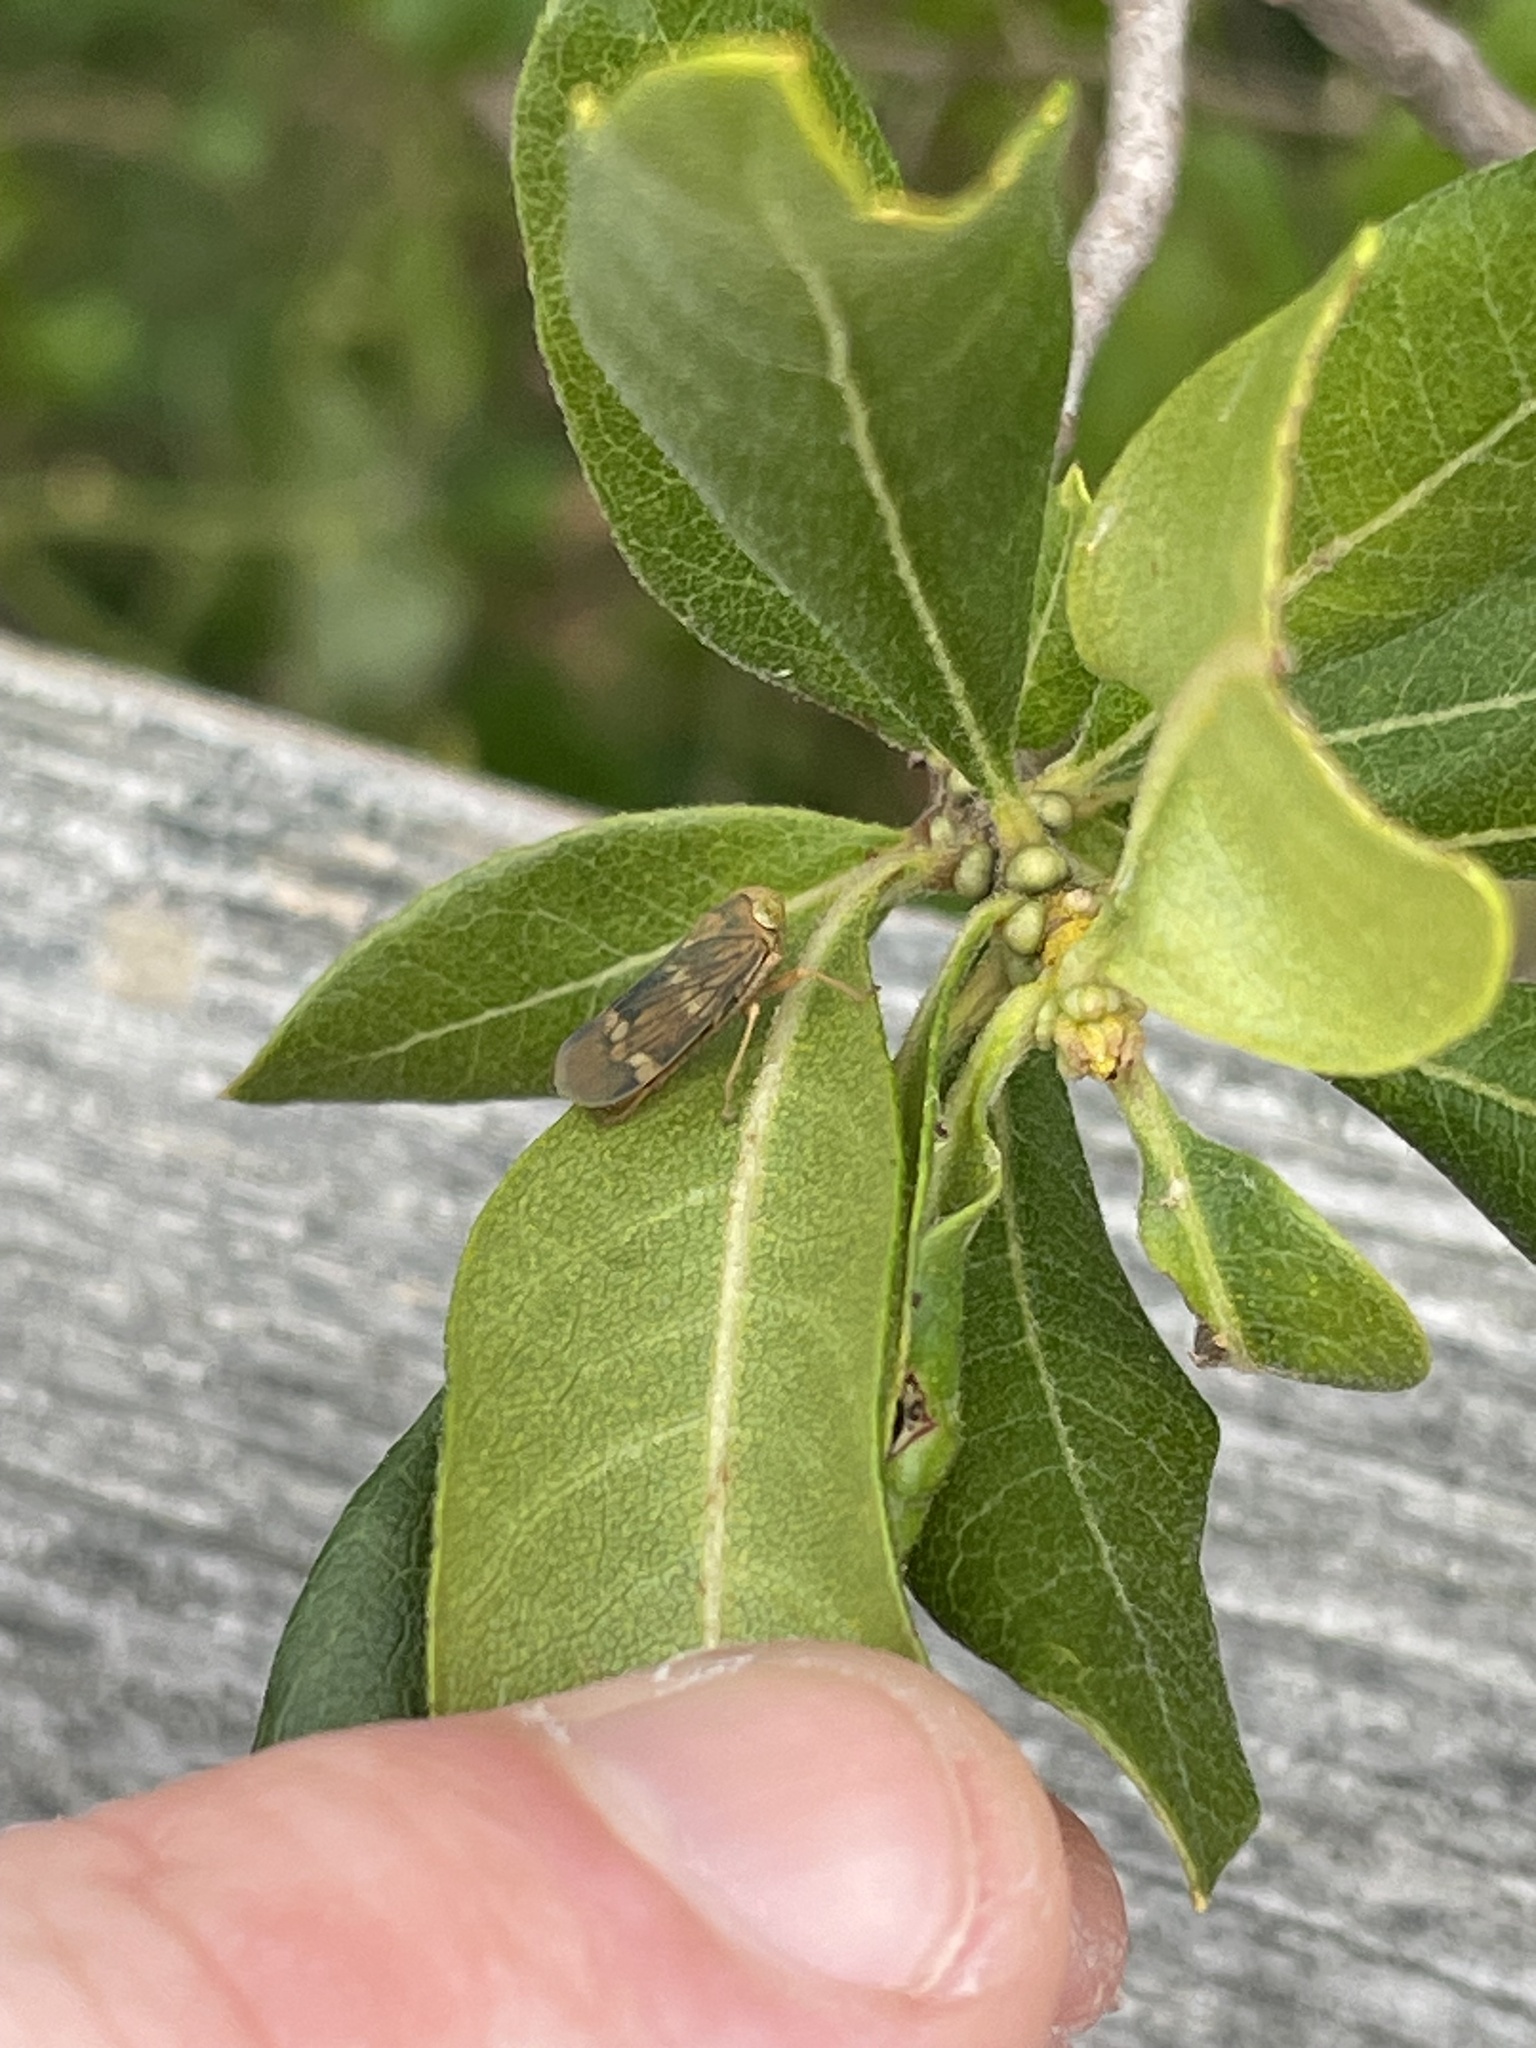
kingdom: Animalia
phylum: Arthropoda
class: Insecta
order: Hemiptera
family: Cicadellidae
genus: Jikradia
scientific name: Jikradia olitoria
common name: Coppery leafhopper
